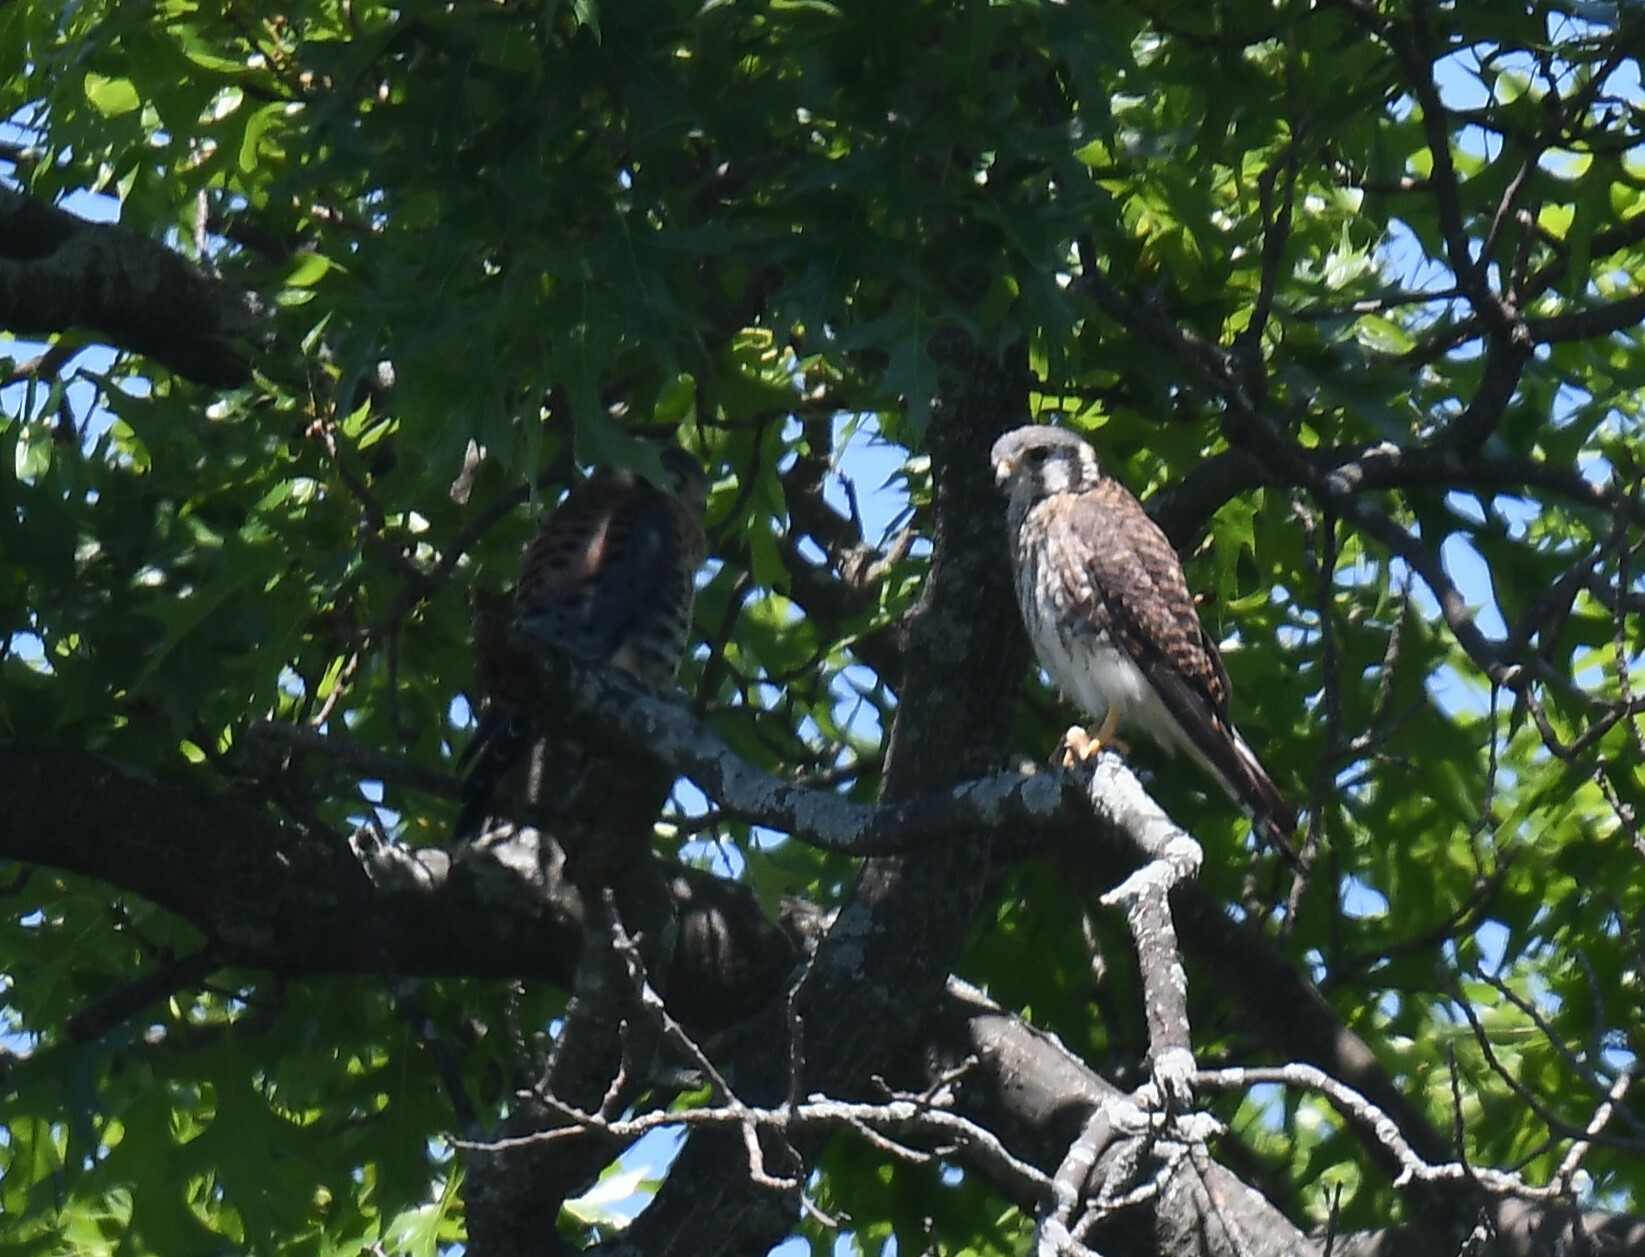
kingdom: Animalia
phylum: Chordata
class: Aves
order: Falconiformes
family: Falconidae
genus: Falco
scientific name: Falco sparverius
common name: American kestrel
